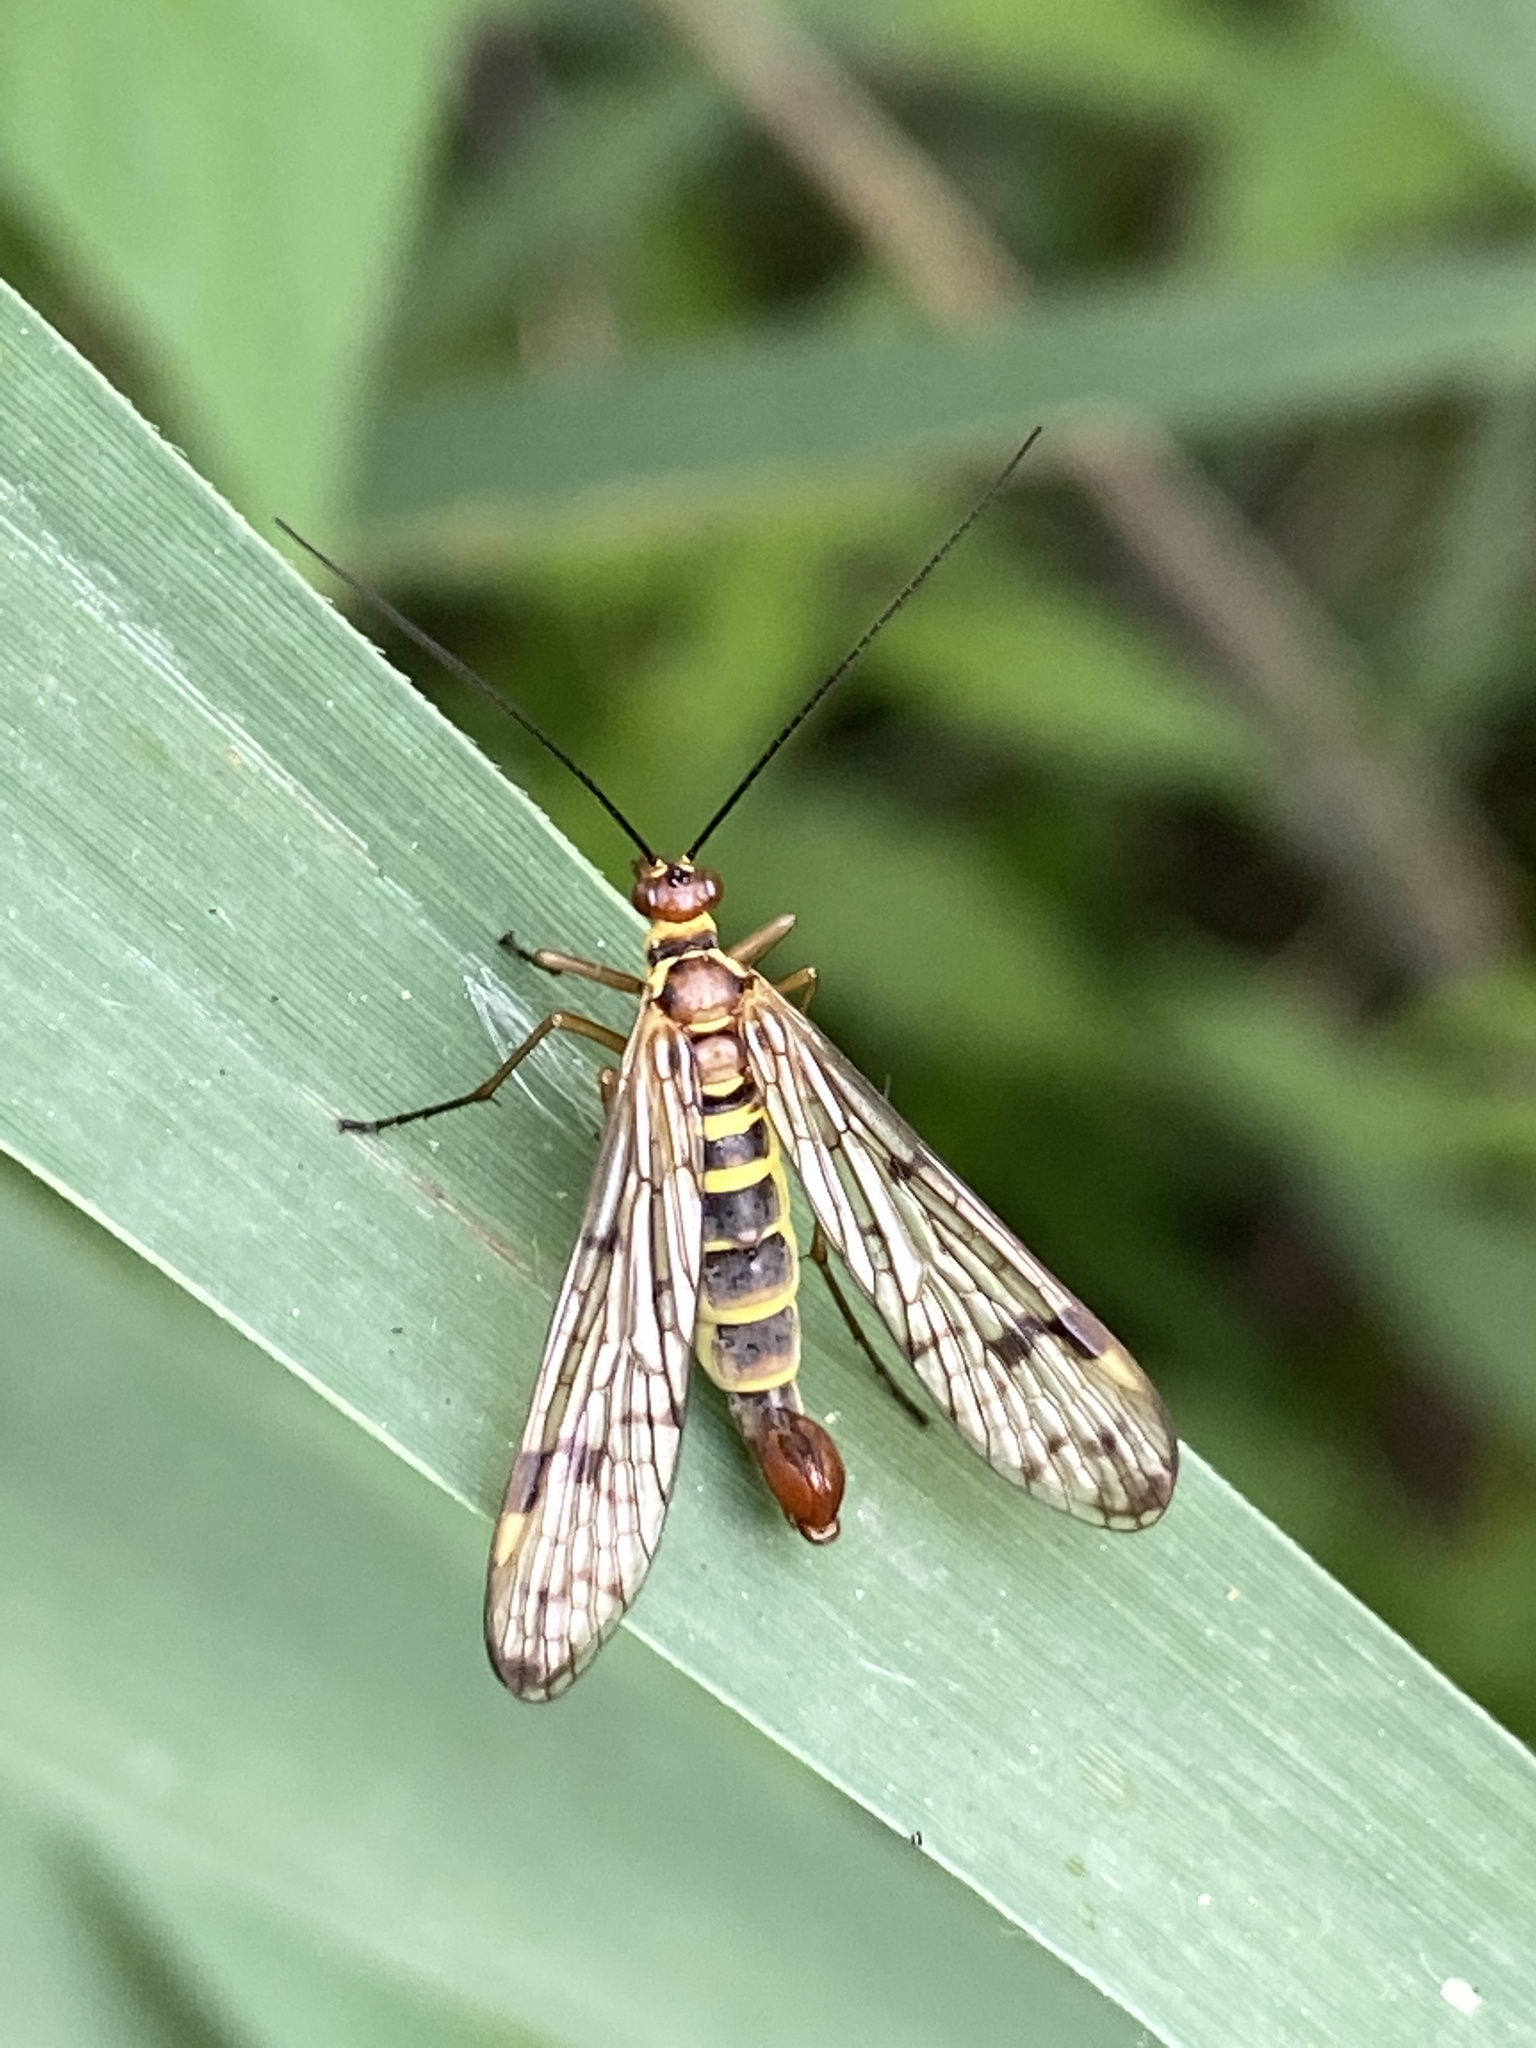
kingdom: Animalia
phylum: Arthropoda
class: Insecta
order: Mecoptera
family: Panorpidae
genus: Panorpa
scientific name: Panorpa germanica
